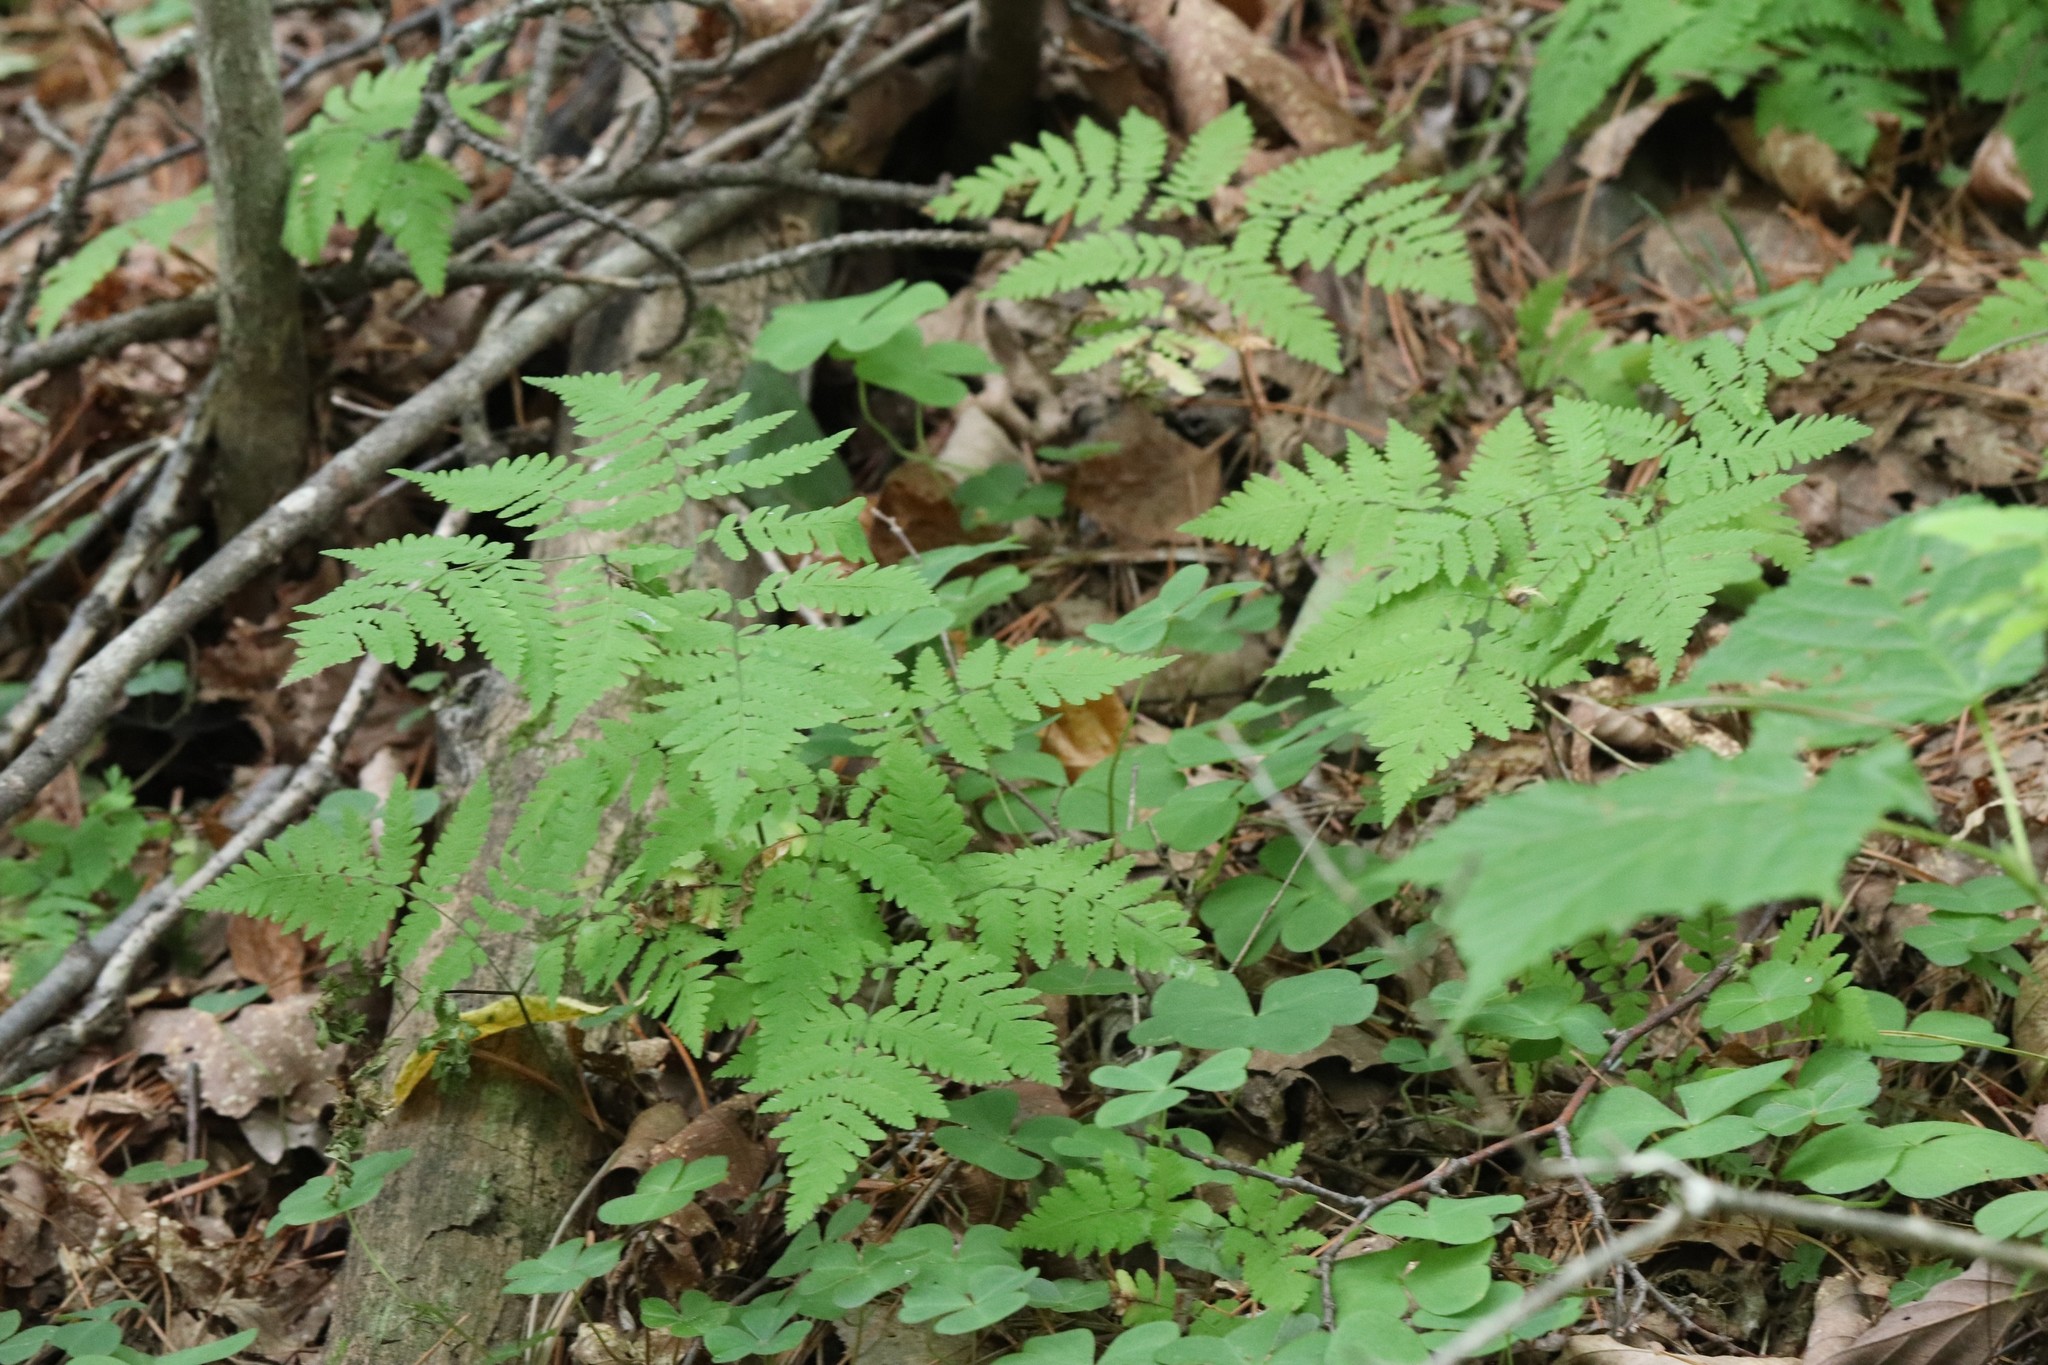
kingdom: Plantae
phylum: Tracheophyta
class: Polypodiopsida
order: Polypodiales
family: Cystopteridaceae
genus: Gymnocarpium
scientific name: Gymnocarpium dryopteris
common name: Oak fern
